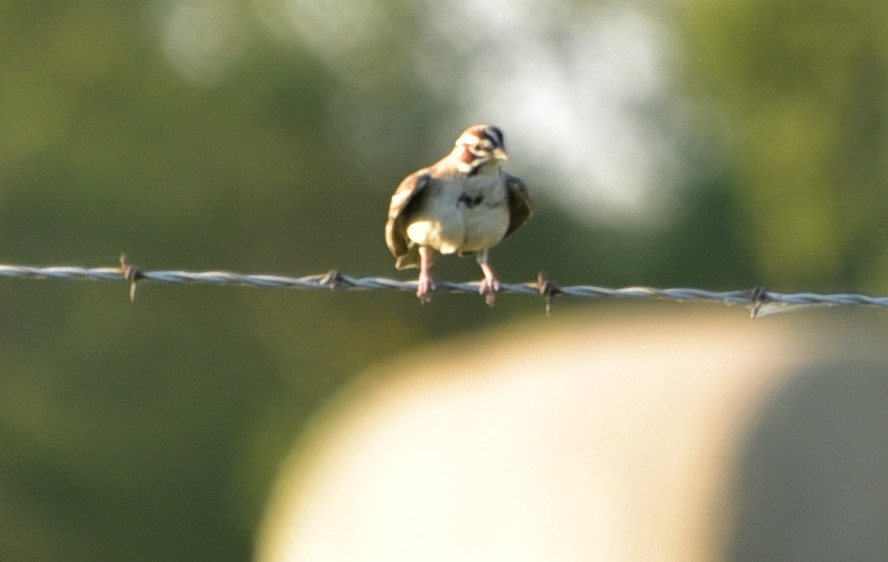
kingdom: Animalia
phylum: Chordata
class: Aves
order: Passeriformes
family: Passerellidae
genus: Chondestes
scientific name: Chondestes grammacus
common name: Lark sparrow
